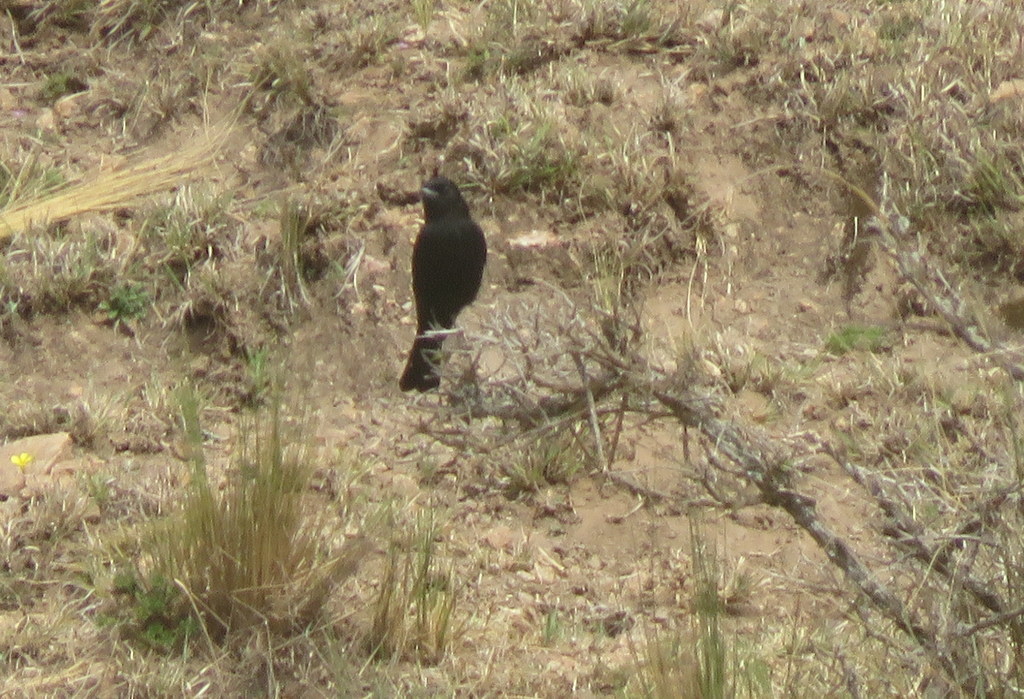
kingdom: Animalia
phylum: Chordata
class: Aves
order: Passeriformes
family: Tyrannidae
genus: Knipolegus
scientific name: Knipolegus aterrimus
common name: White-winged black tyrant
